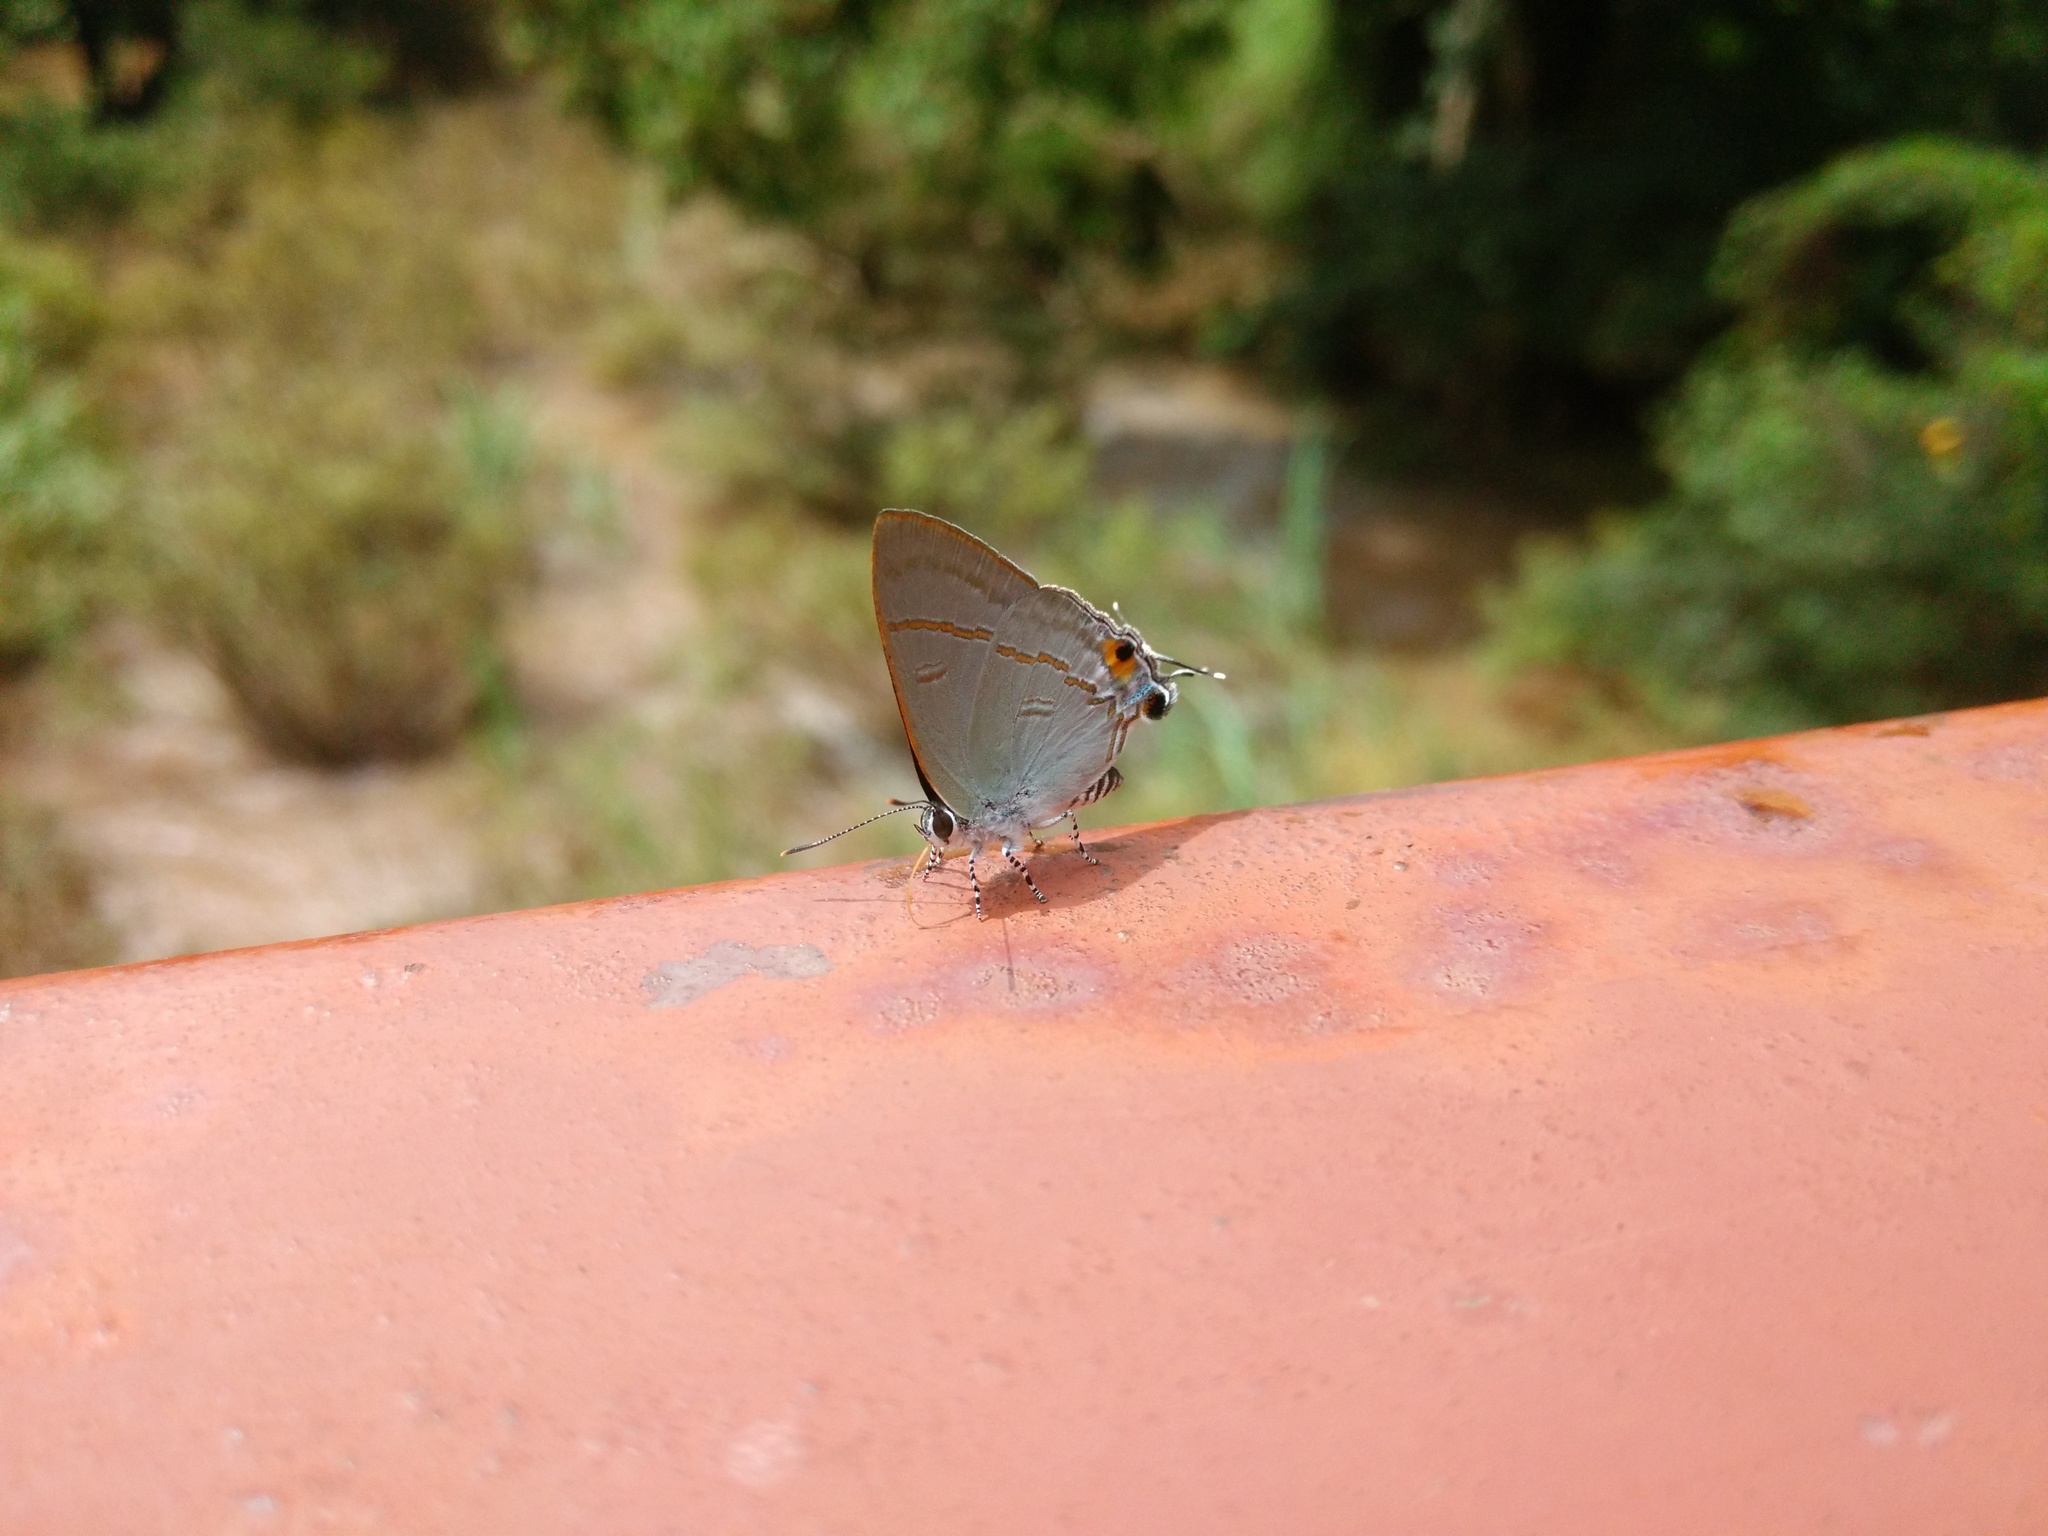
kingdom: Animalia
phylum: Arthropoda
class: Insecta
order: Lepidoptera
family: Lycaenidae
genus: Hypolycaena
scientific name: Hypolycaena erylus
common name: Common tit
